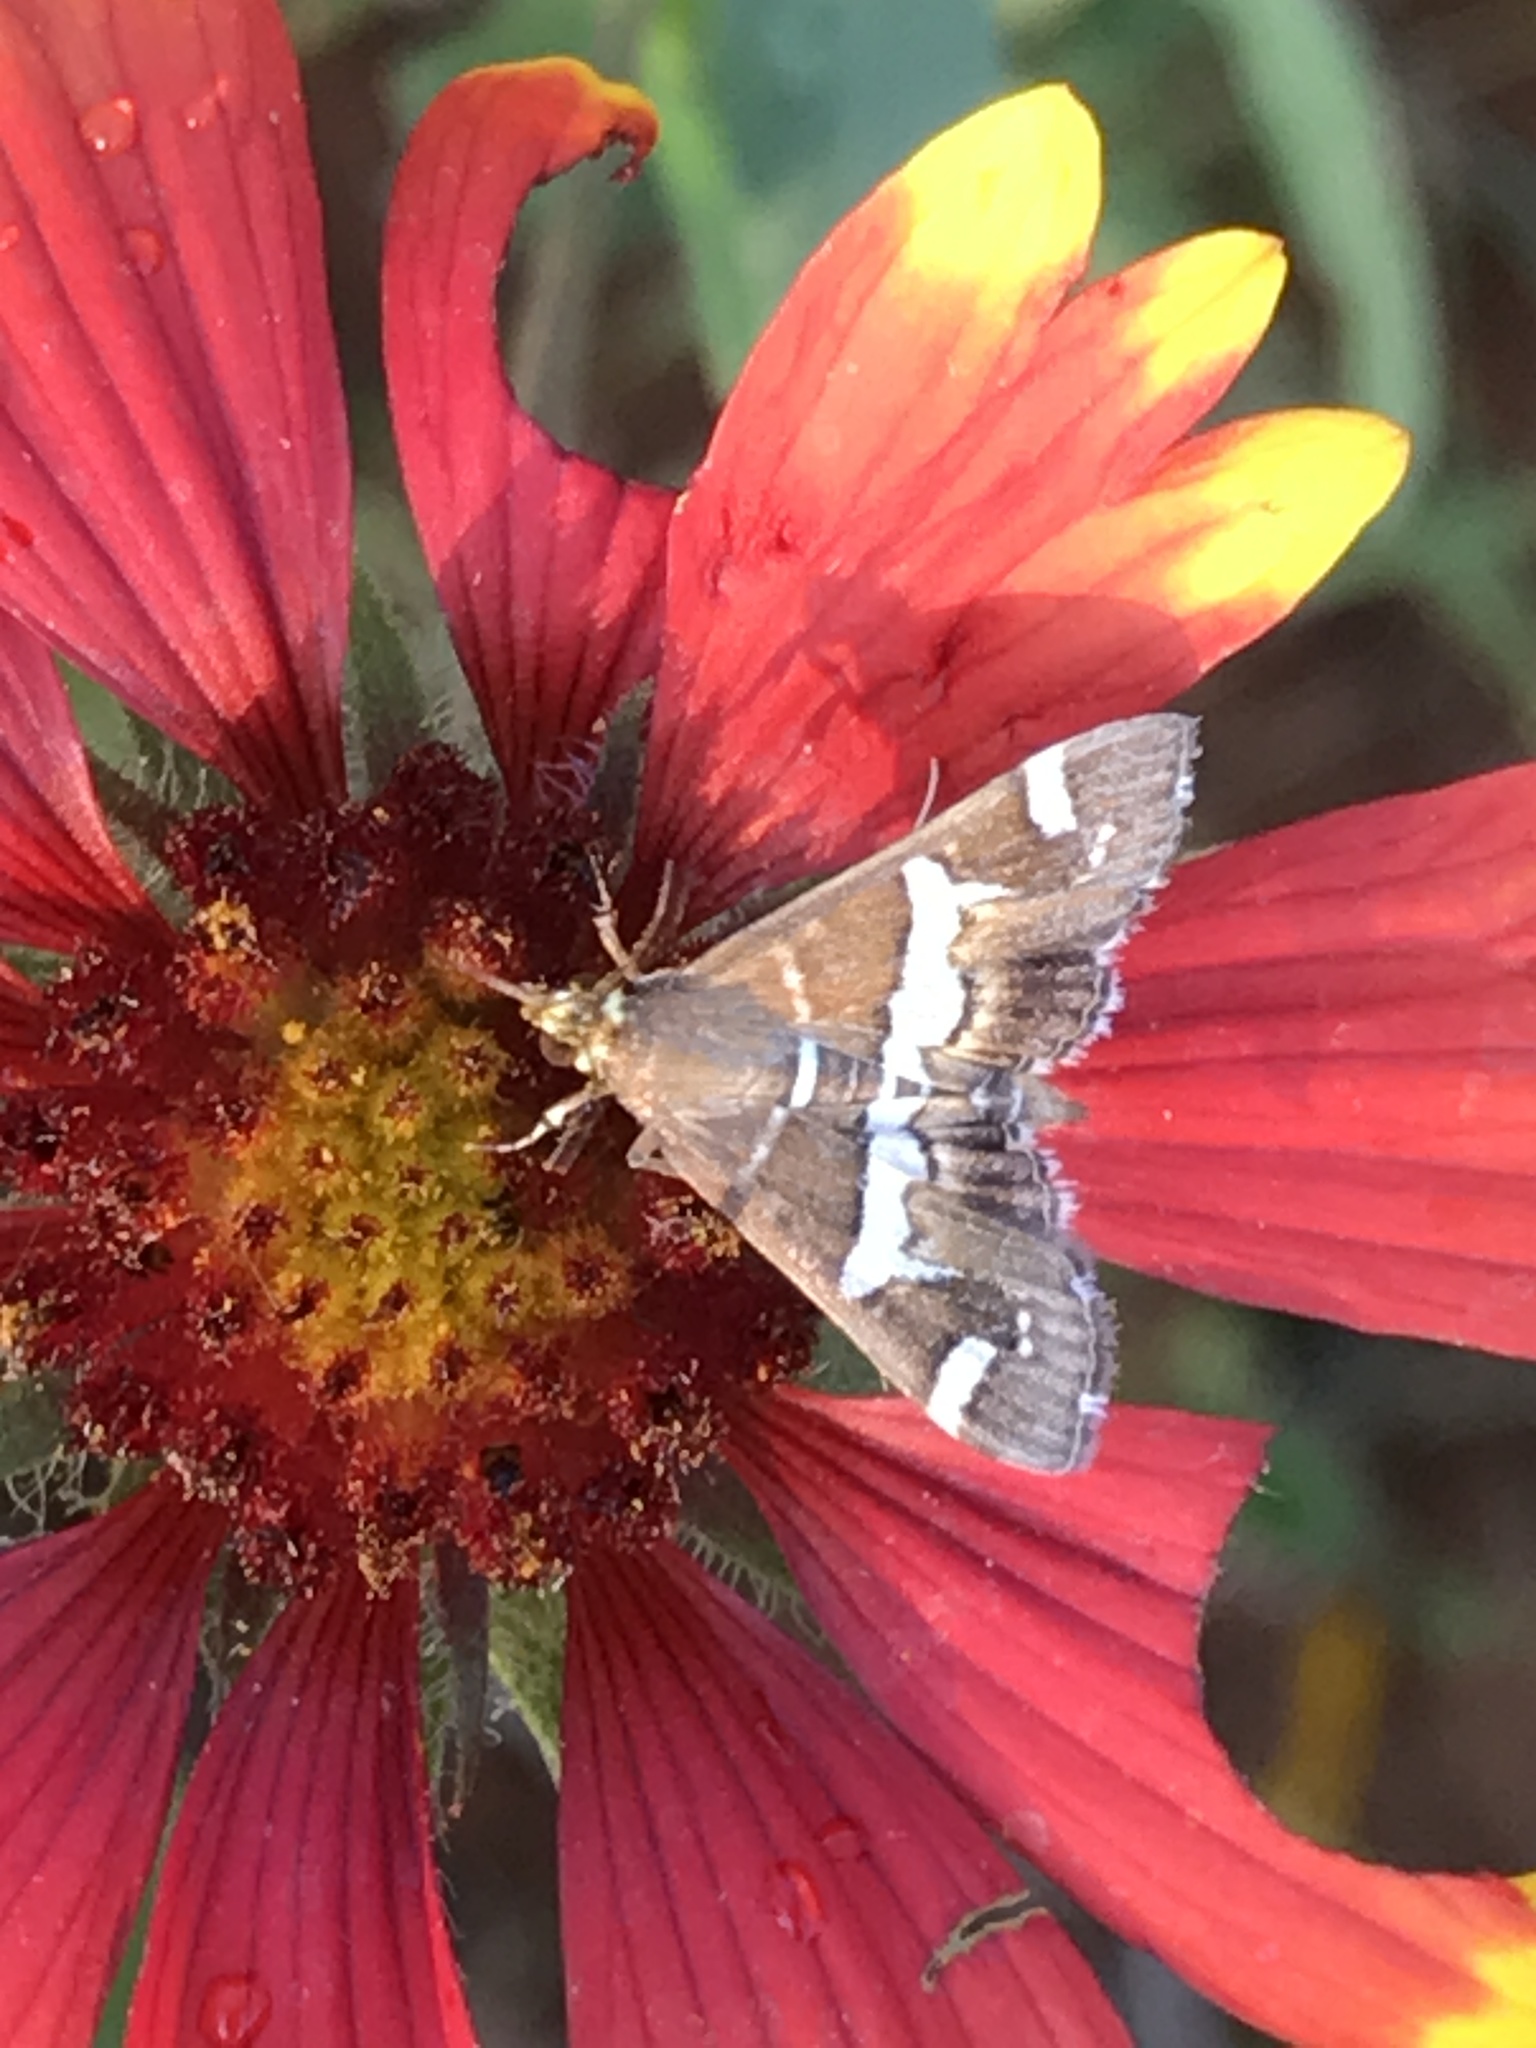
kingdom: Animalia
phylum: Arthropoda
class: Insecta
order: Lepidoptera
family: Crambidae
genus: Spoladea
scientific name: Spoladea recurvalis
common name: Beet webworm moth
